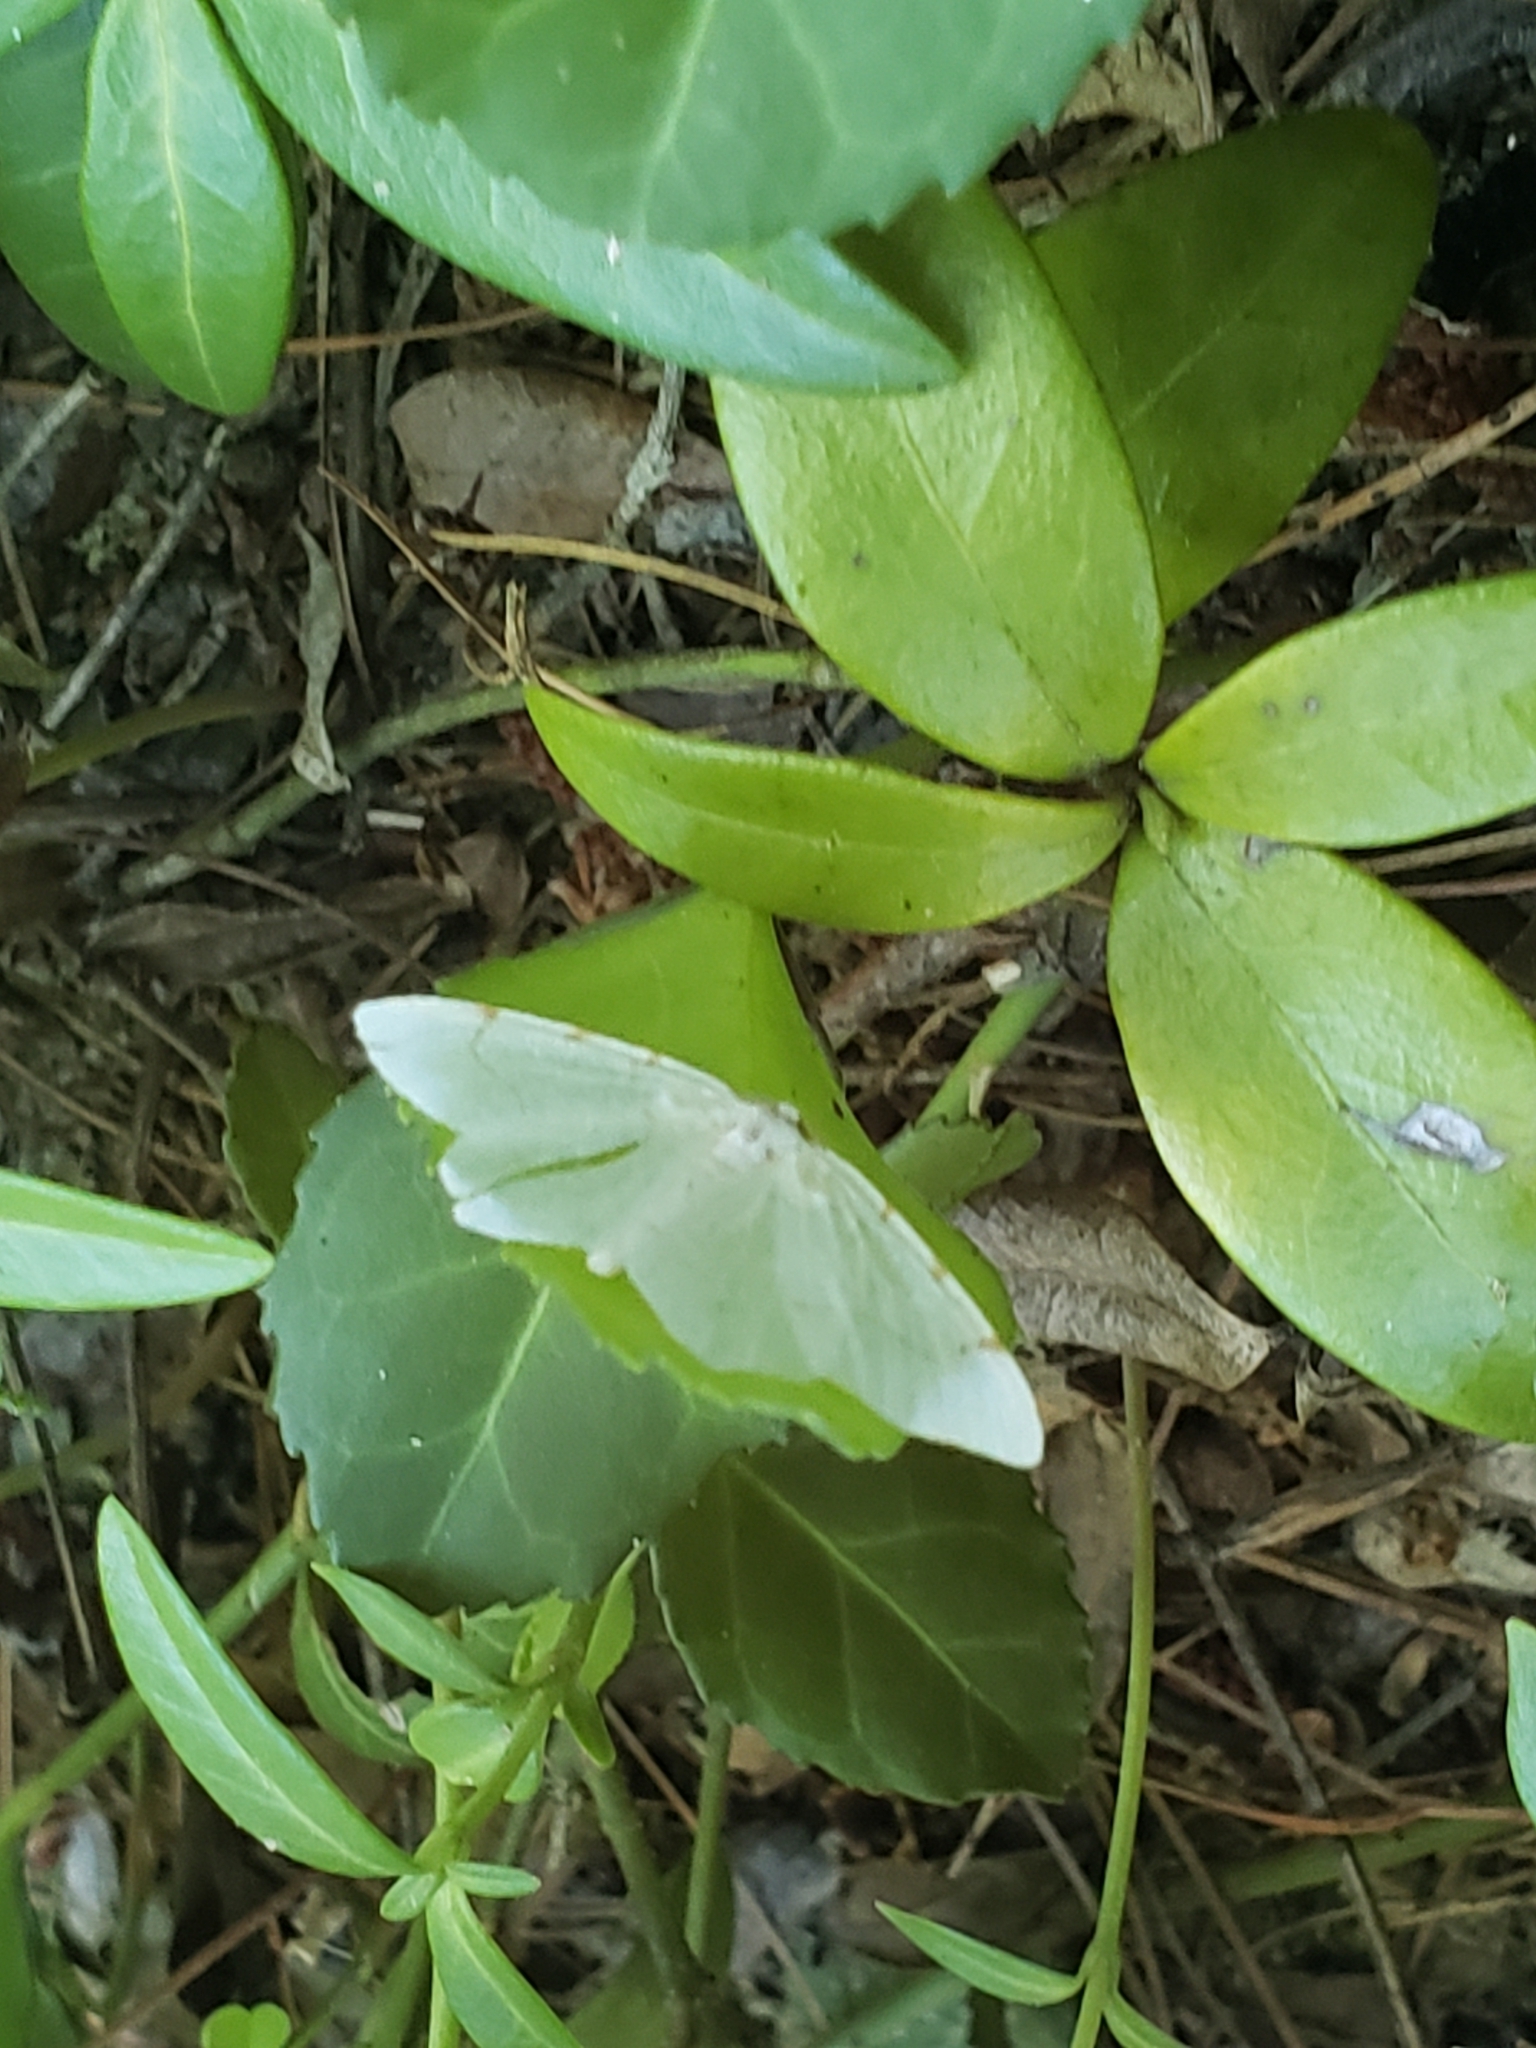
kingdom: Animalia
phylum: Arthropoda
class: Insecta
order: Lepidoptera
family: Geometridae
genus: Macaria
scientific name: Macaria pustularia
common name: Lesser maple spanworm moth
